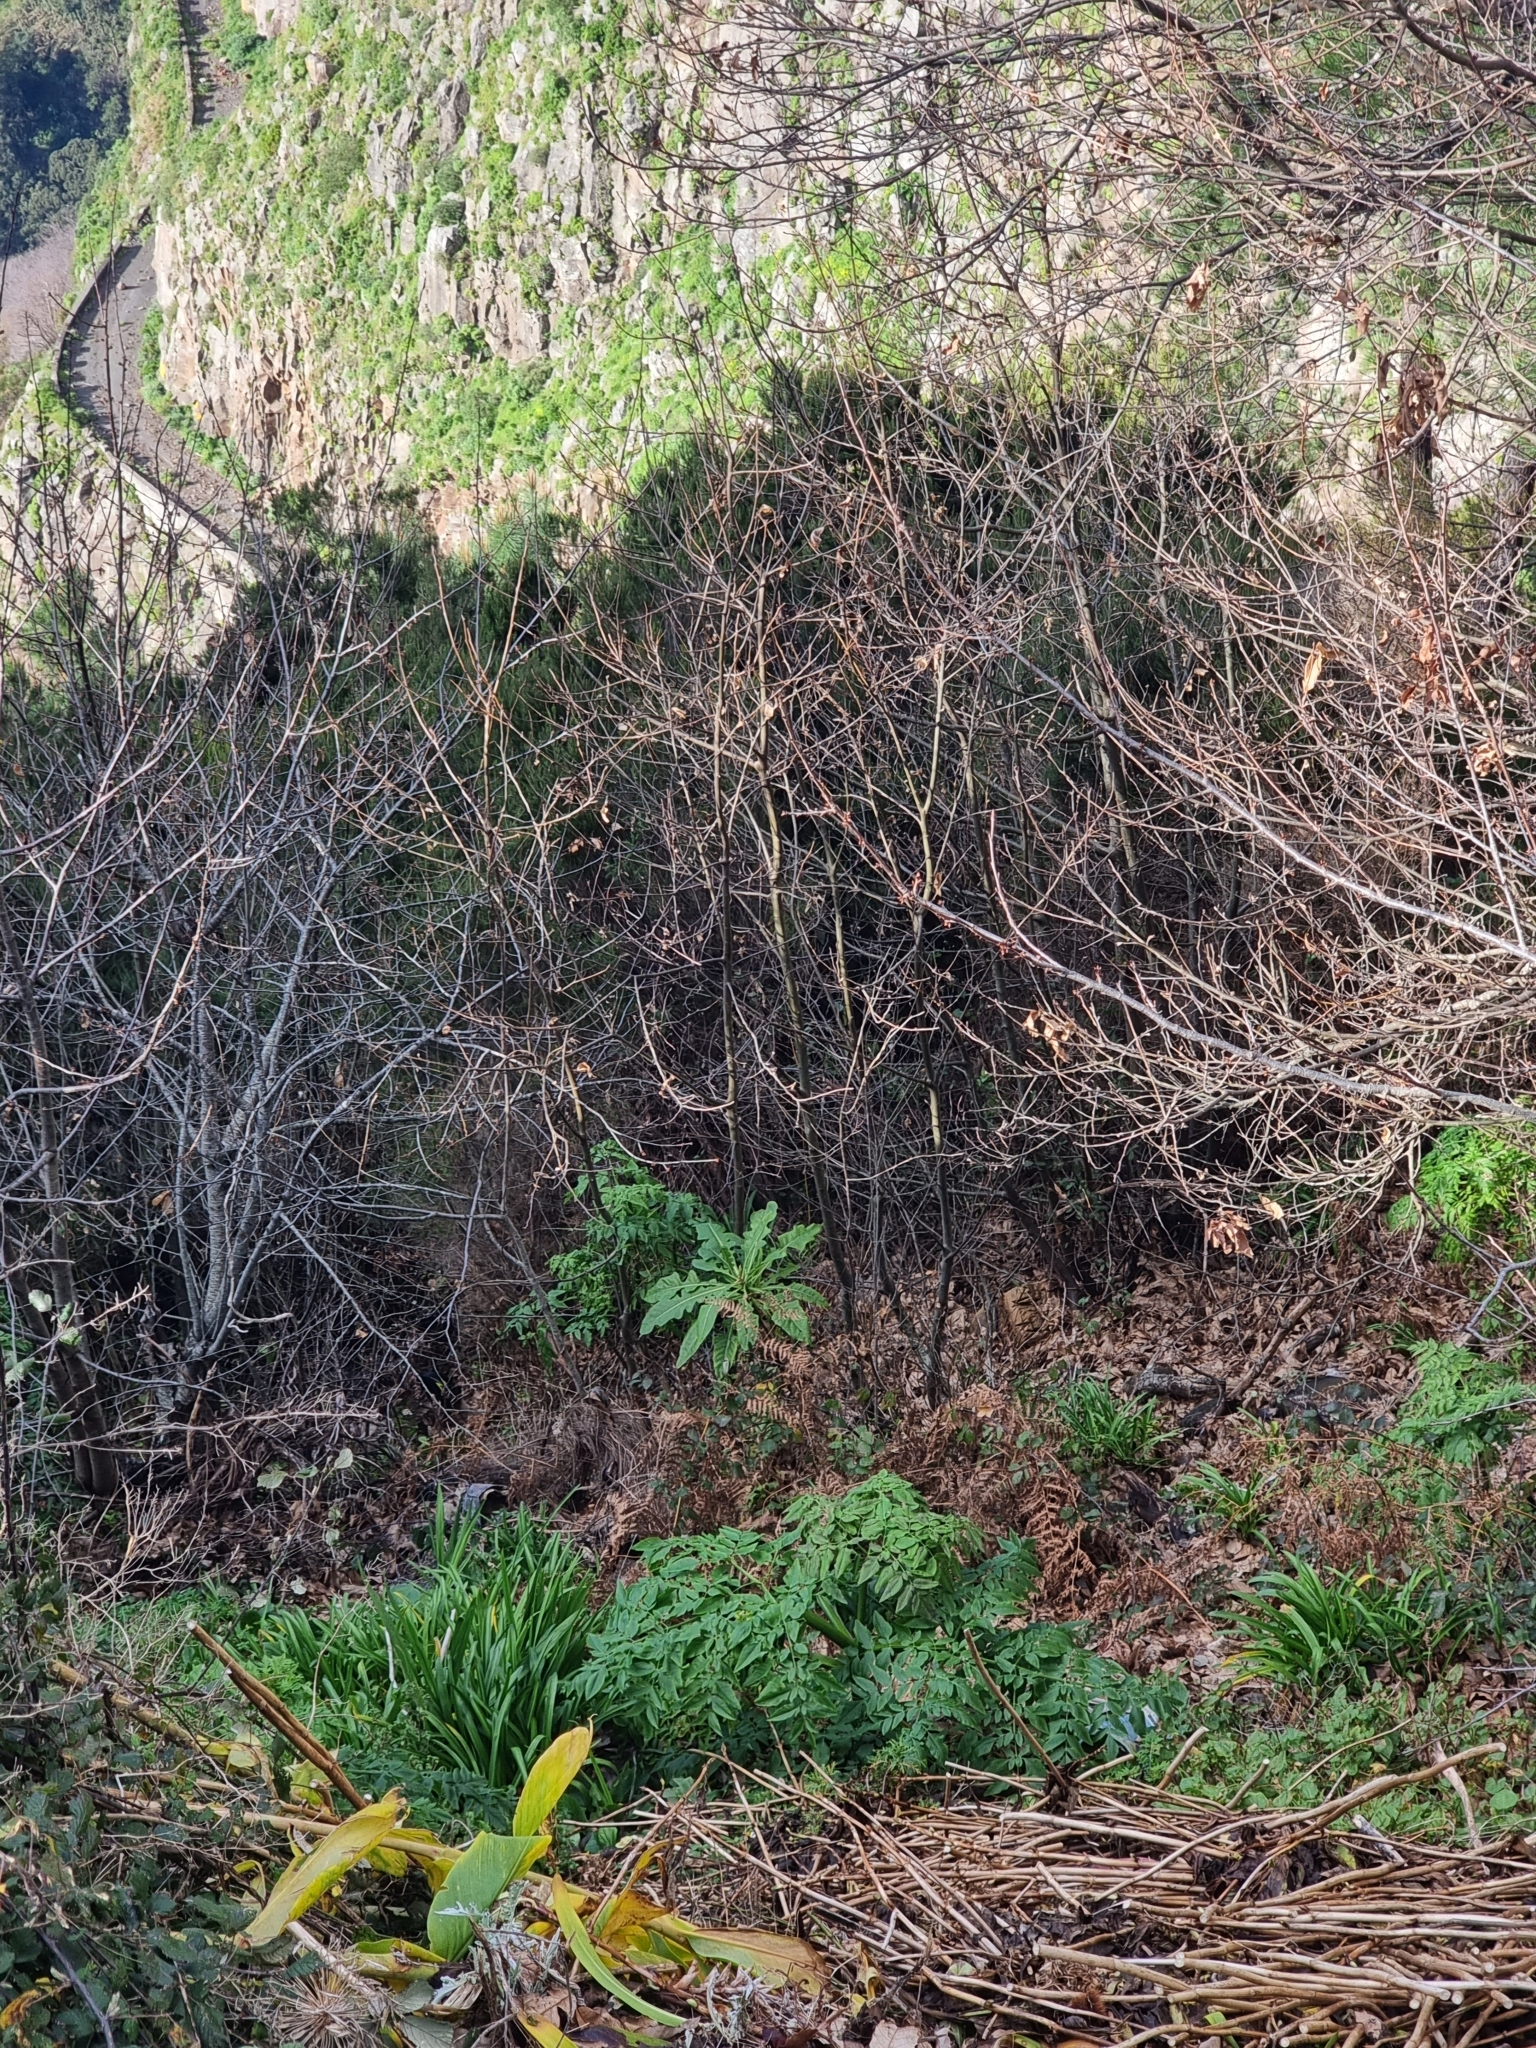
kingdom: Plantae
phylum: Tracheophyta
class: Magnoliopsida
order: Asterales
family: Asteraceae
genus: Sonchus
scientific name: Sonchus fruticosus
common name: Shrubby sow-thistle
